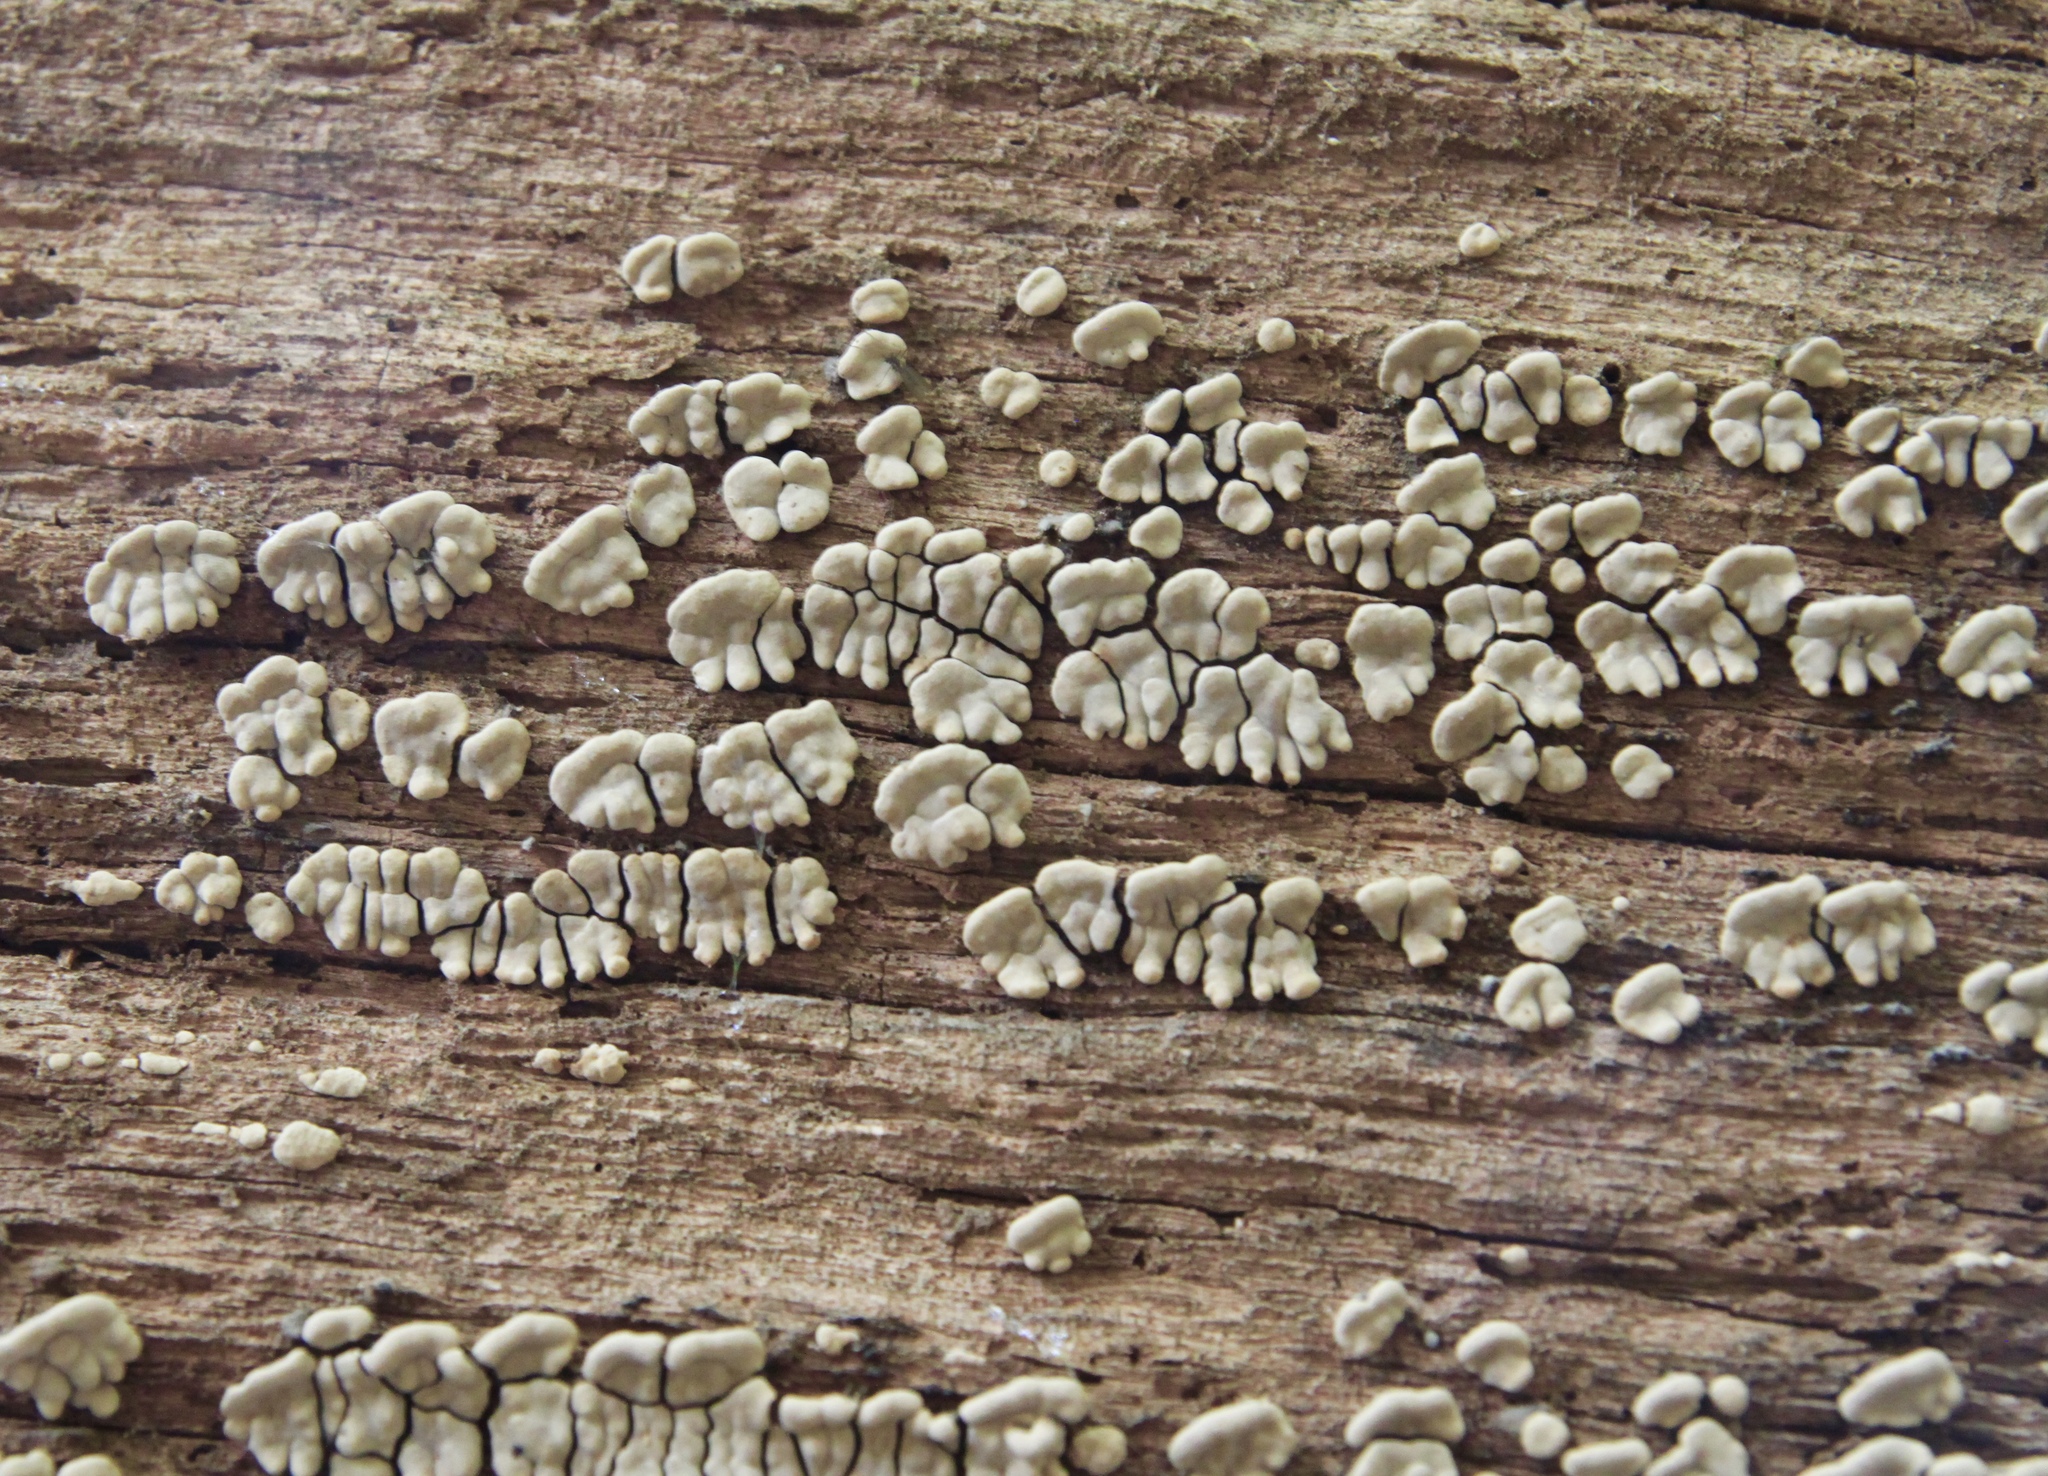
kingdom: Fungi
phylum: Basidiomycota
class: Agaricomycetes
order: Russulales
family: Stereaceae
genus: Xylobolus
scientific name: Xylobolus frustulatus
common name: Ceramic parchment
